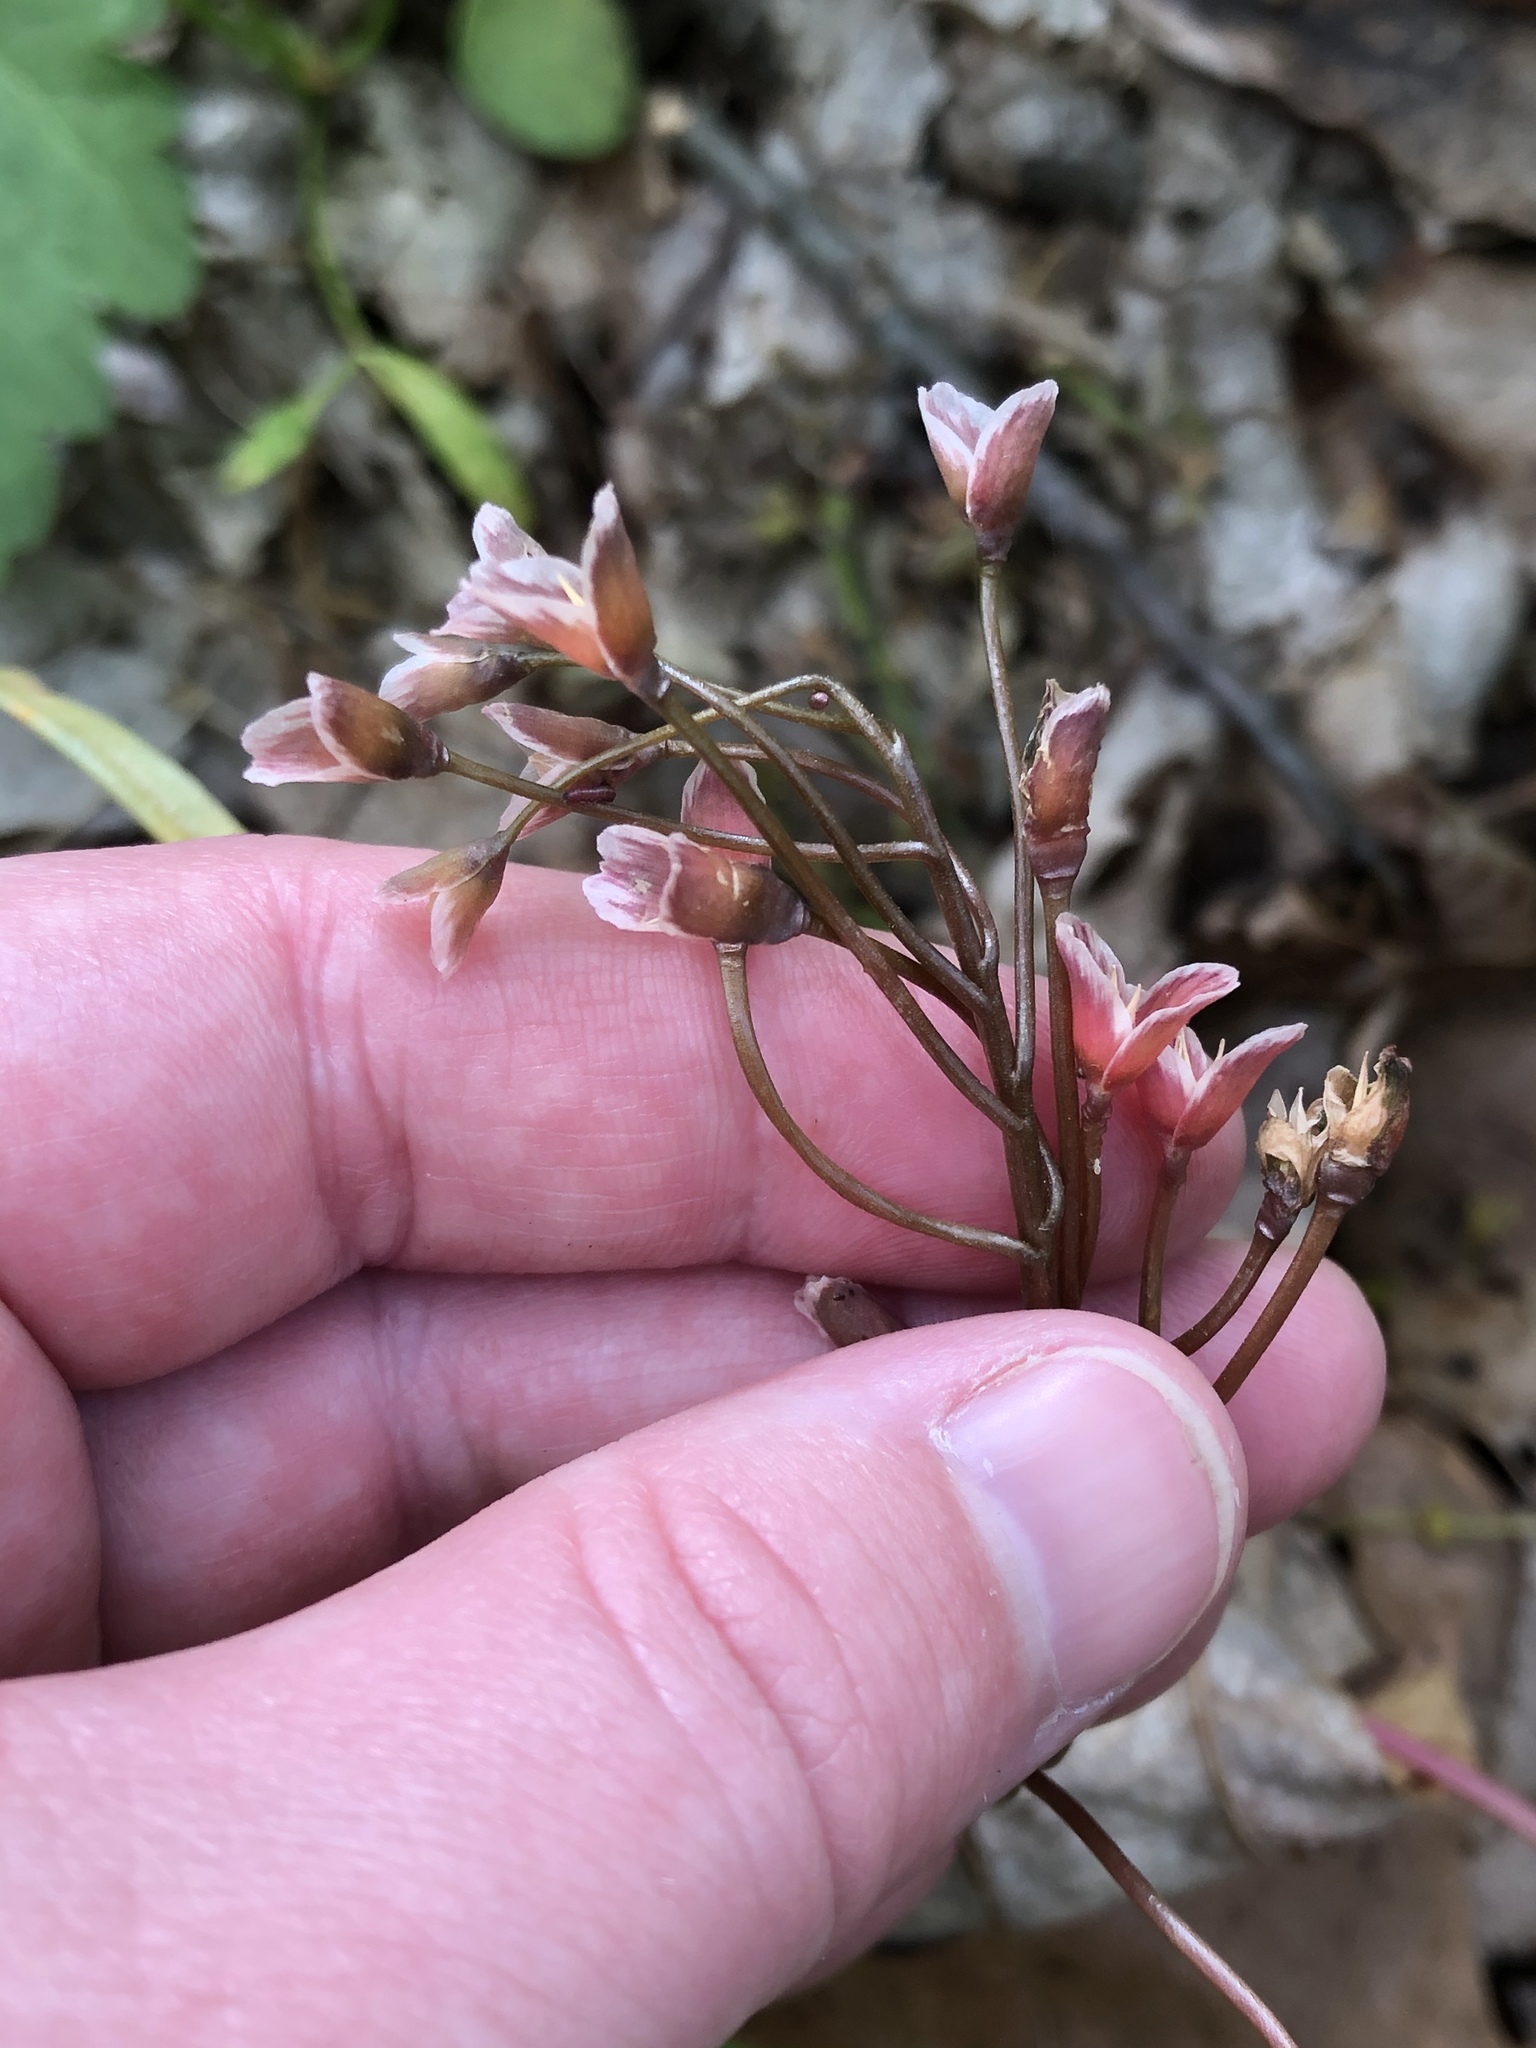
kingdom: Plantae
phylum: Tracheophyta
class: Magnoliopsida
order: Caryophyllales
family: Montiaceae
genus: Claytonia
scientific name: Claytonia virginica
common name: Virginia springbeauty
